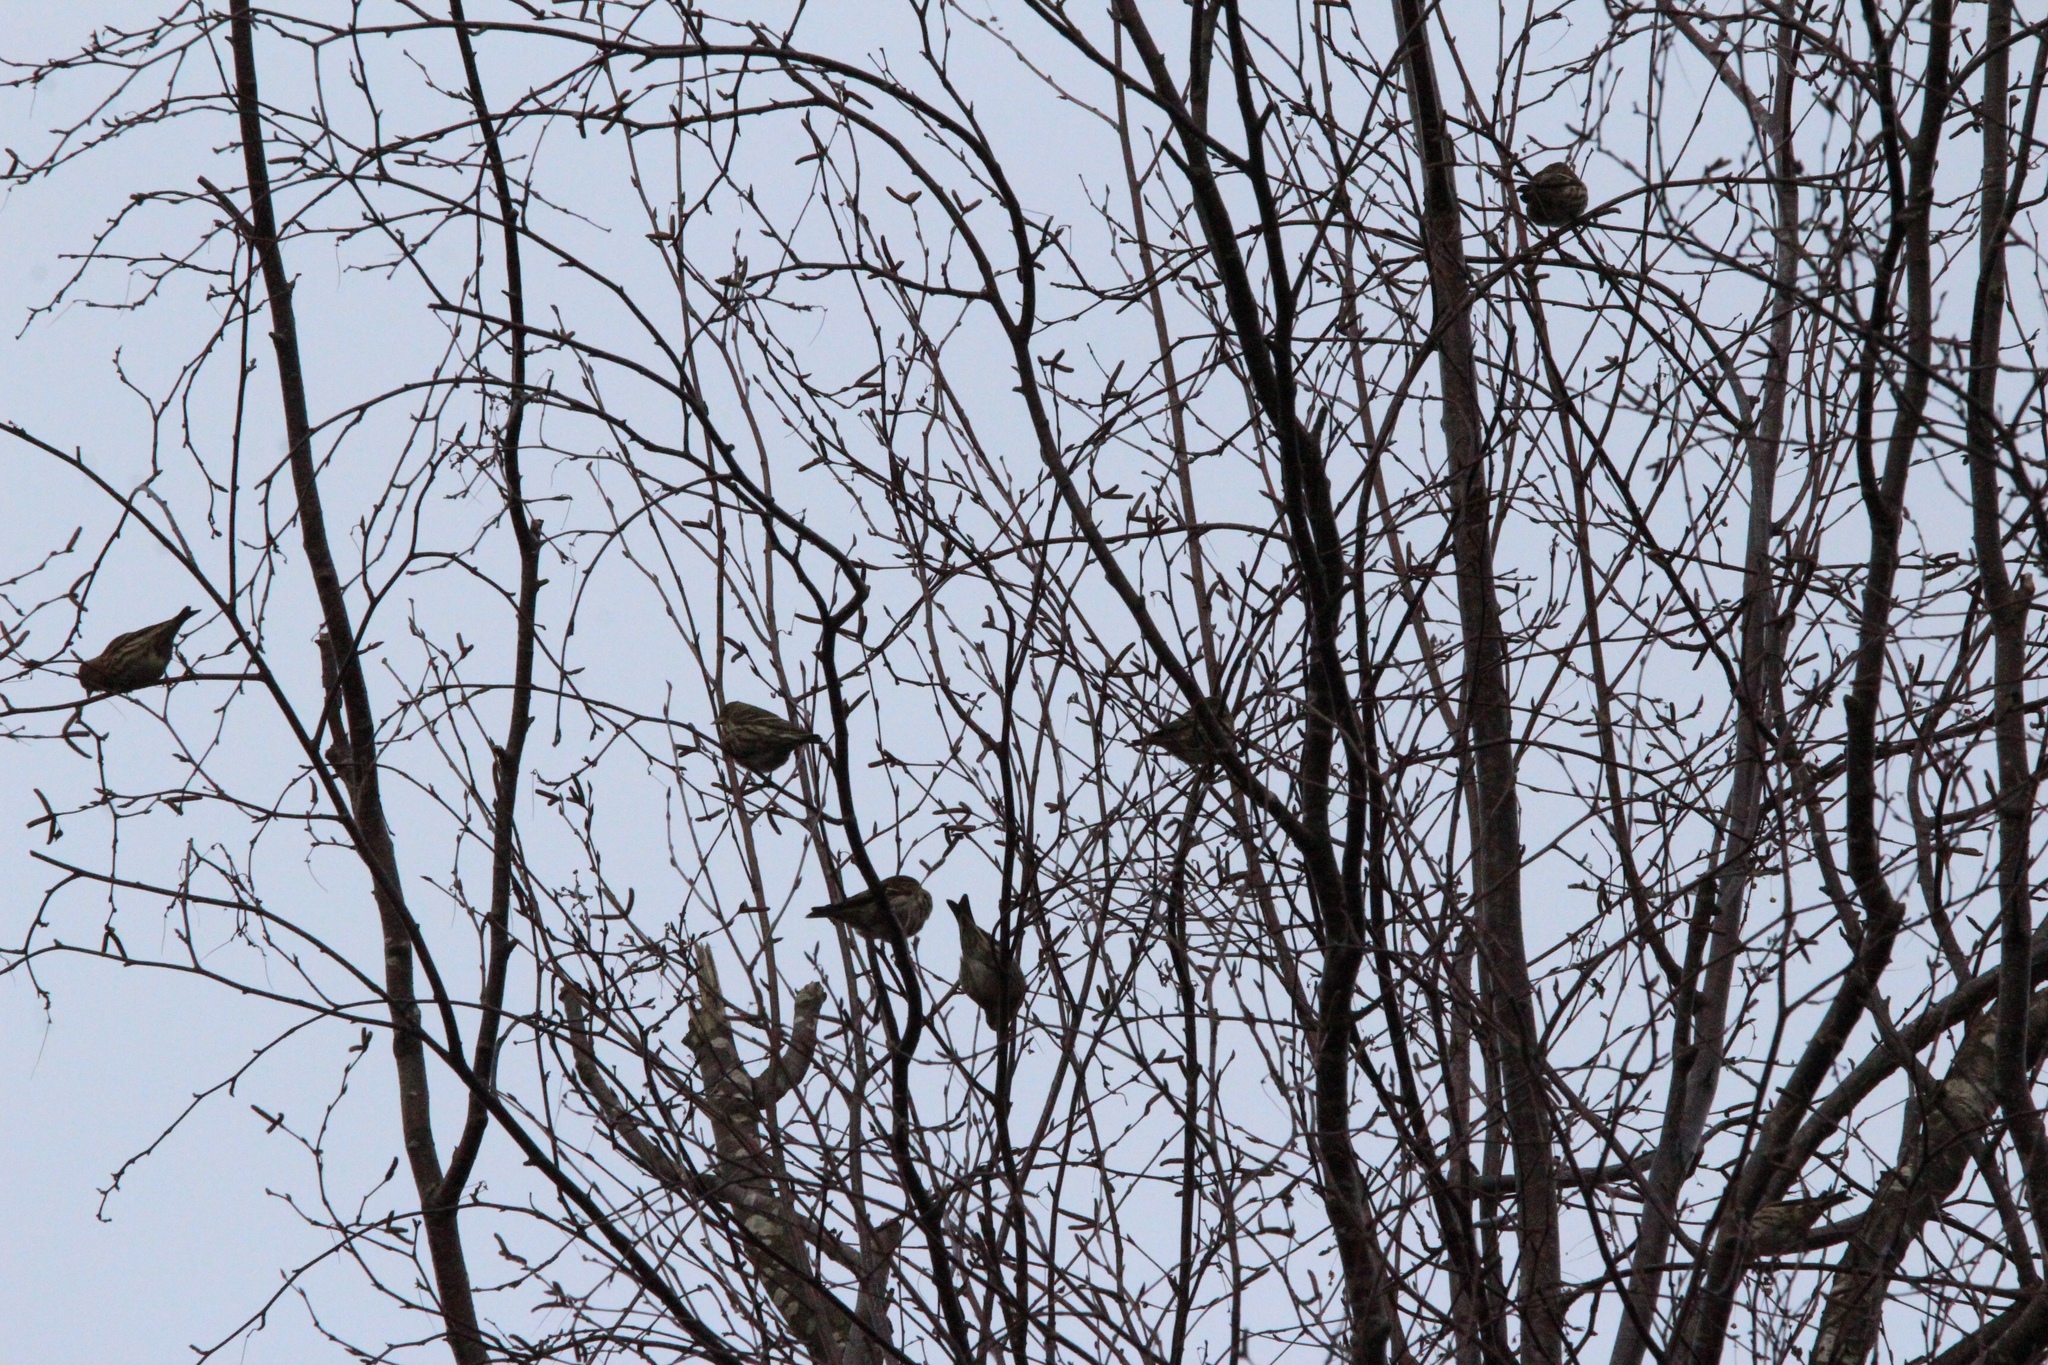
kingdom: Animalia
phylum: Chordata
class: Aves
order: Passeriformes
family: Fringillidae
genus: Spinus
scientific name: Spinus pinus
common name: Pine siskin
